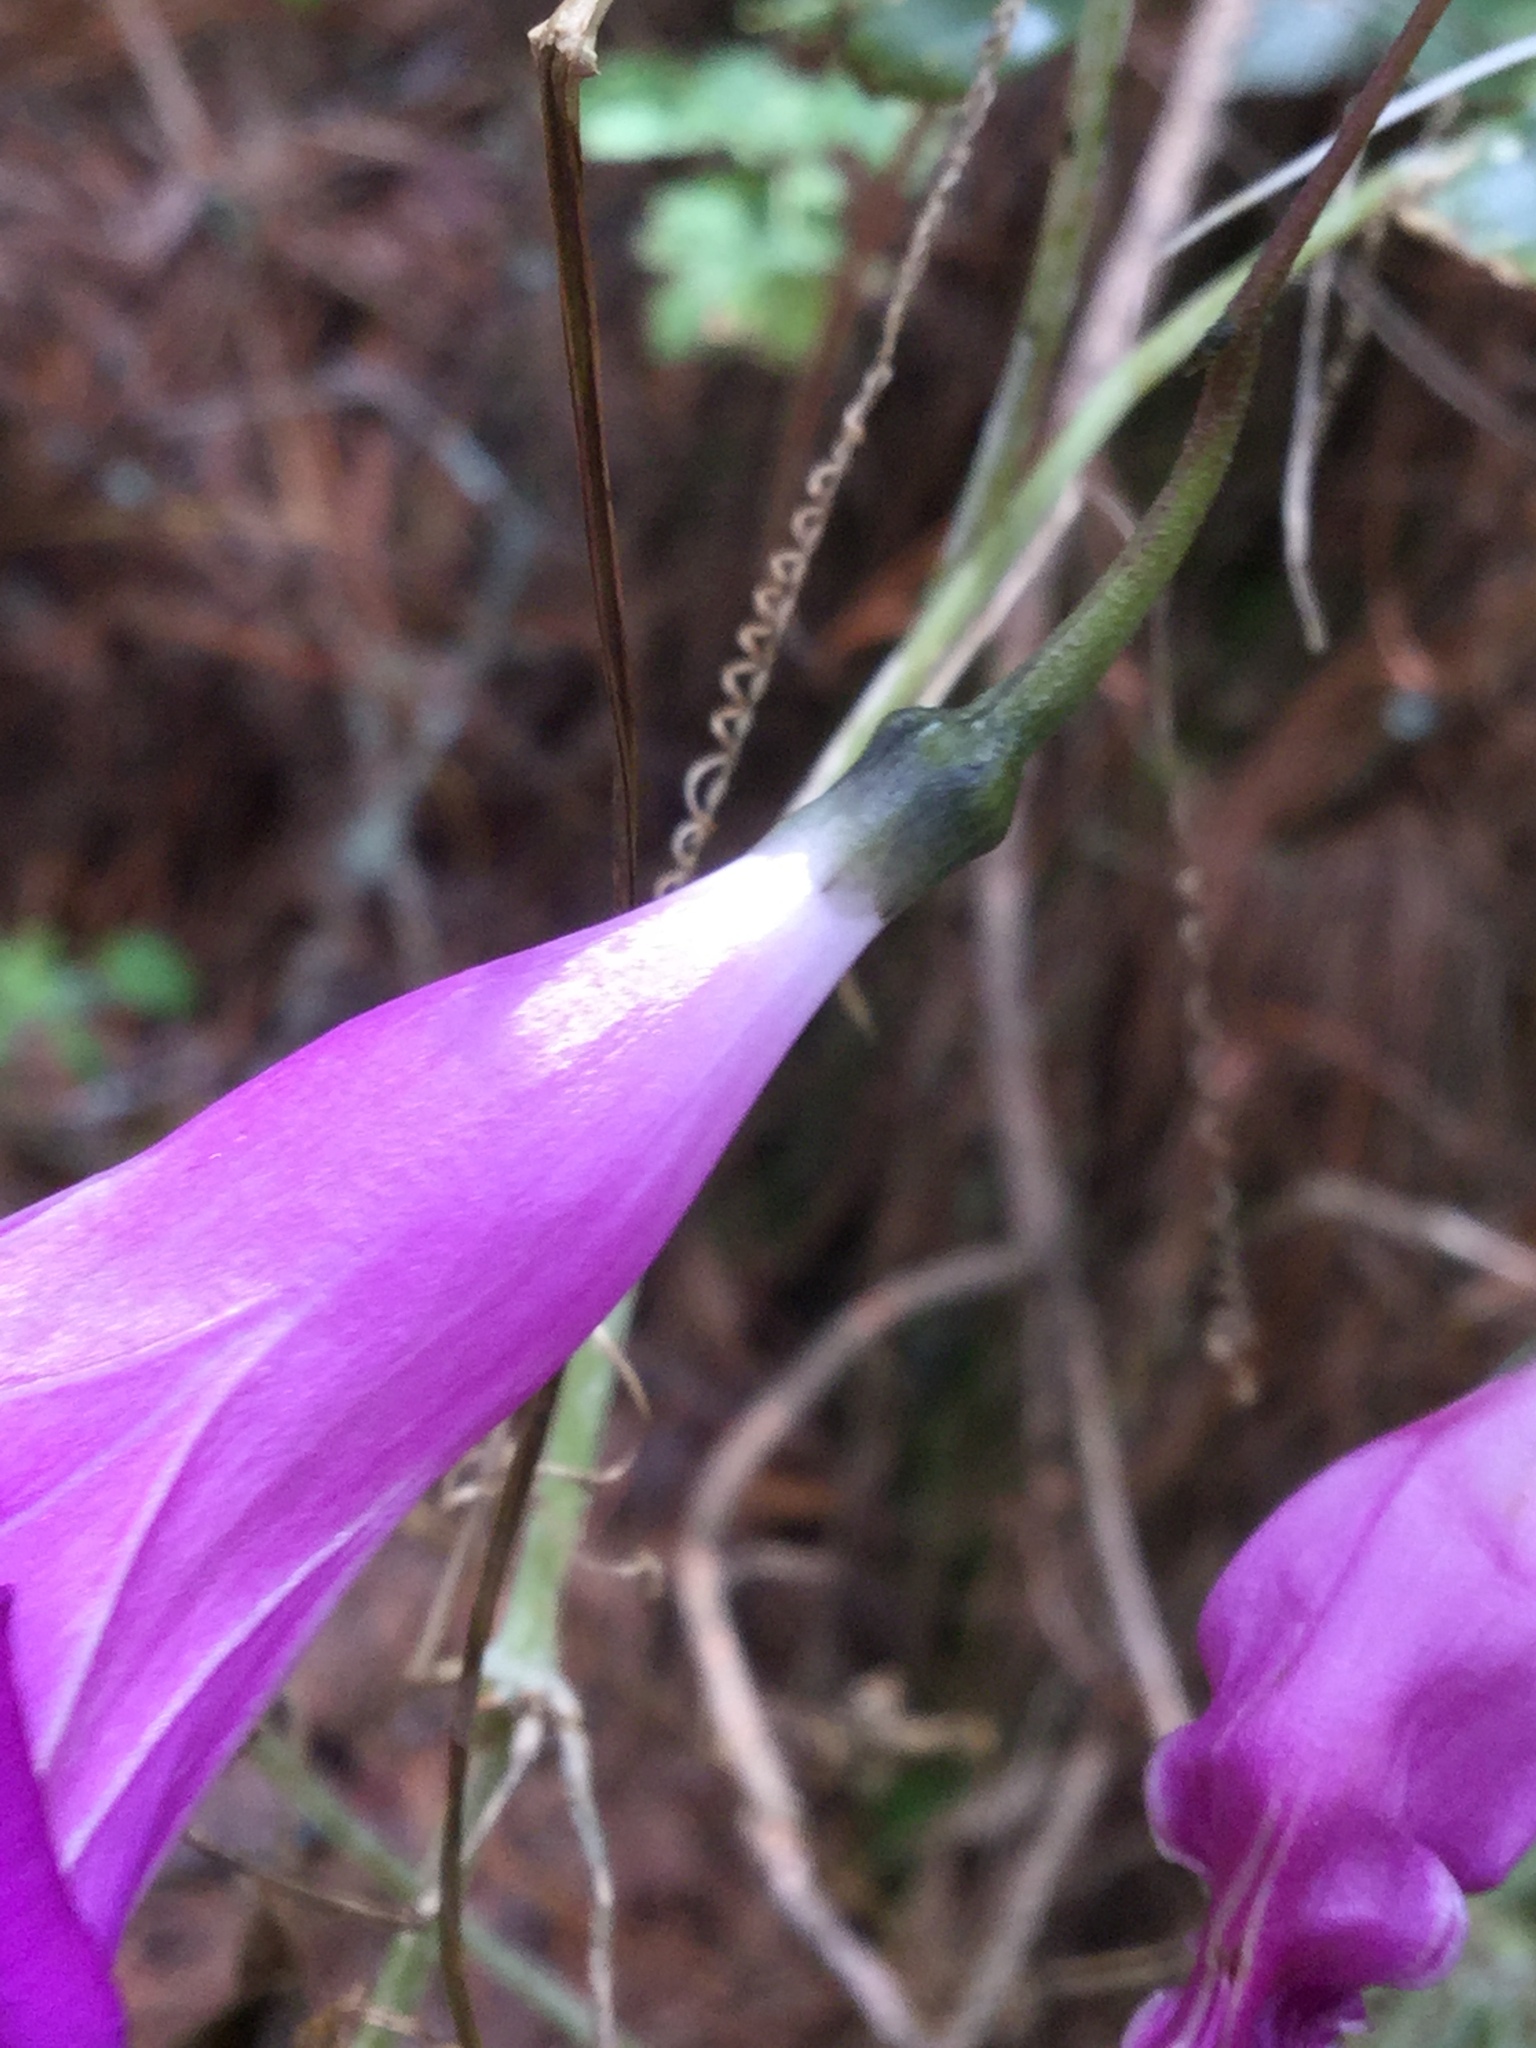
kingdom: Plantae
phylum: Tracheophyta
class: Magnoliopsida
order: Solanales
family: Convolvulaceae
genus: Ipomoea
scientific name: Ipomoea simulans
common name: Tampico jalap
